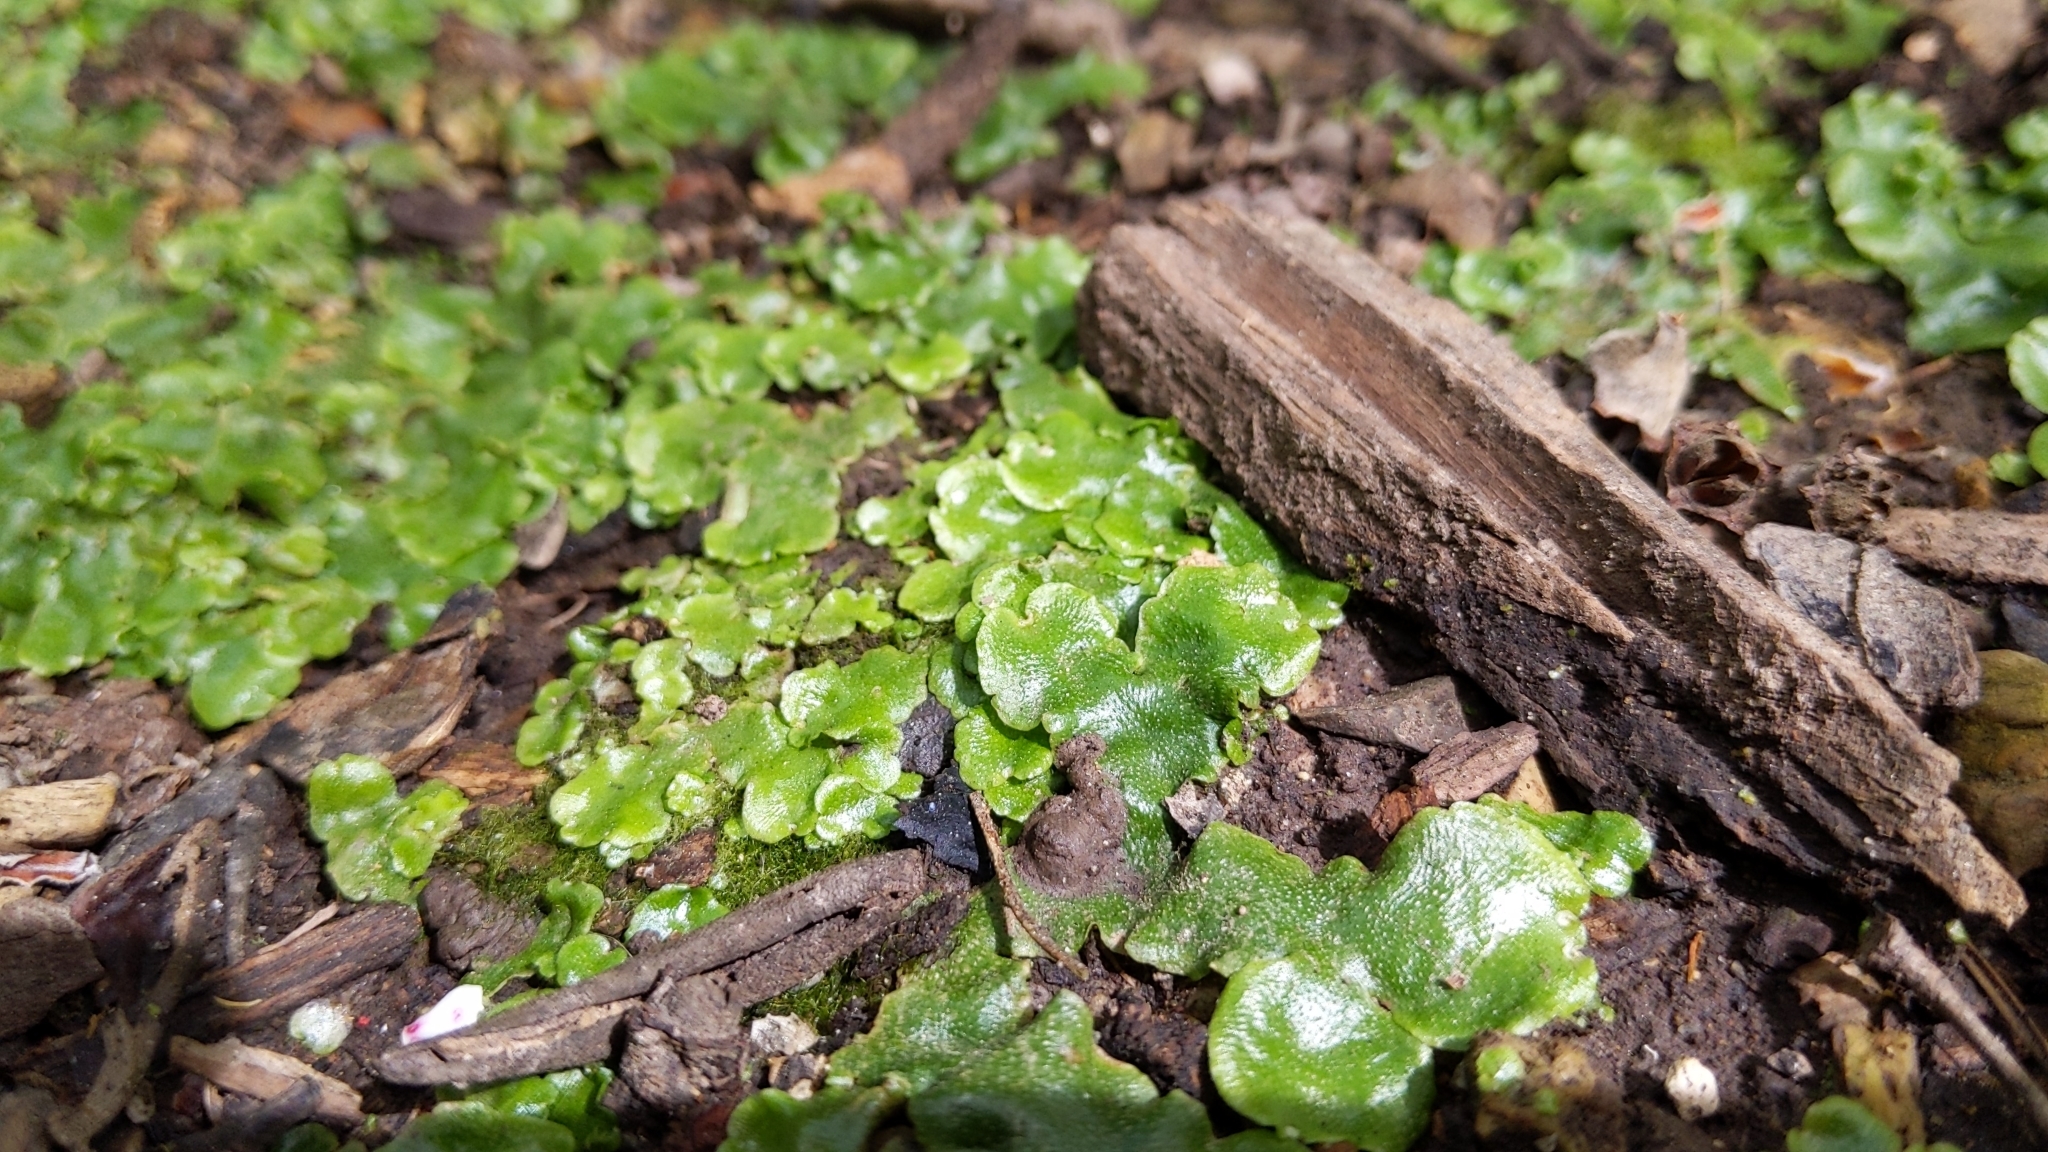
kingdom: Plantae
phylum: Marchantiophyta
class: Marchantiopsida
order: Lunulariales
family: Lunulariaceae
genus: Lunularia
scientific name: Lunularia cruciata
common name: Crescent-cup liverwort
